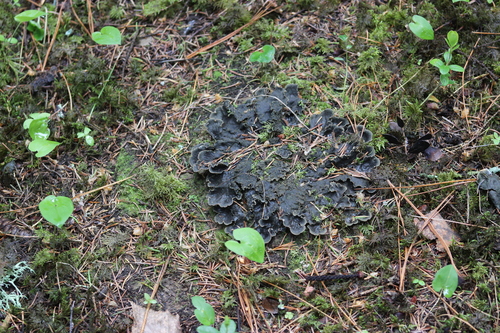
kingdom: Fungi
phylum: Ascomycota
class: Lecanoromycetes
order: Peltigerales
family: Peltigeraceae
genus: Peltigera
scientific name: Peltigera praetextata
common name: Scaly dog-lichen
